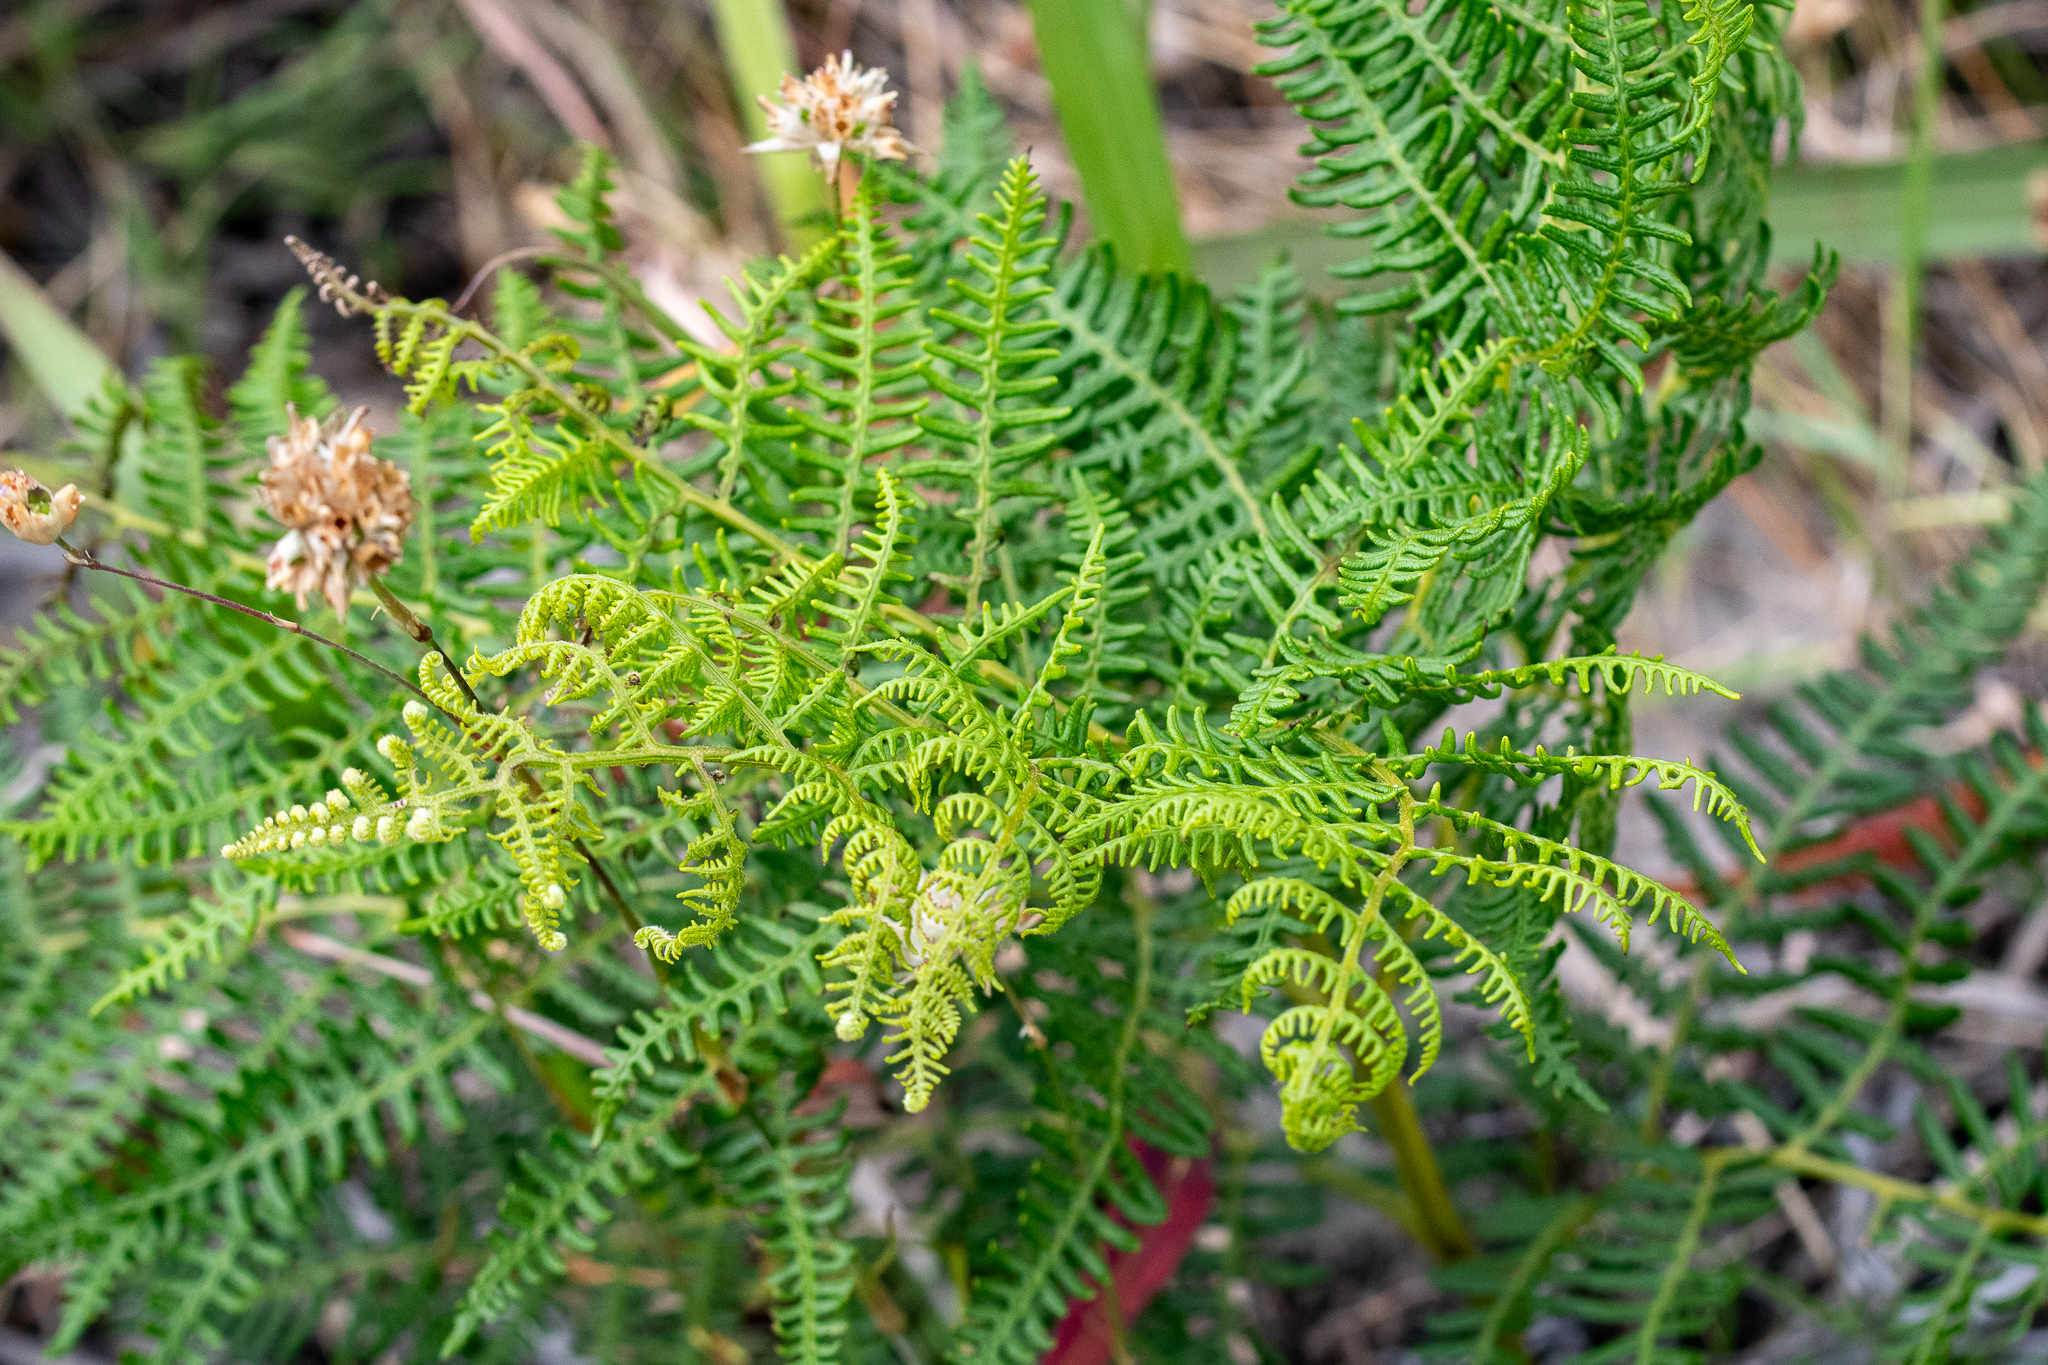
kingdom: Plantae
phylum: Tracheophyta
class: Polypodiopsida
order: Polypodiales
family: Dennstaedtiaceae
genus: Pteridium
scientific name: Pteridium aquilinum
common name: Bracken
